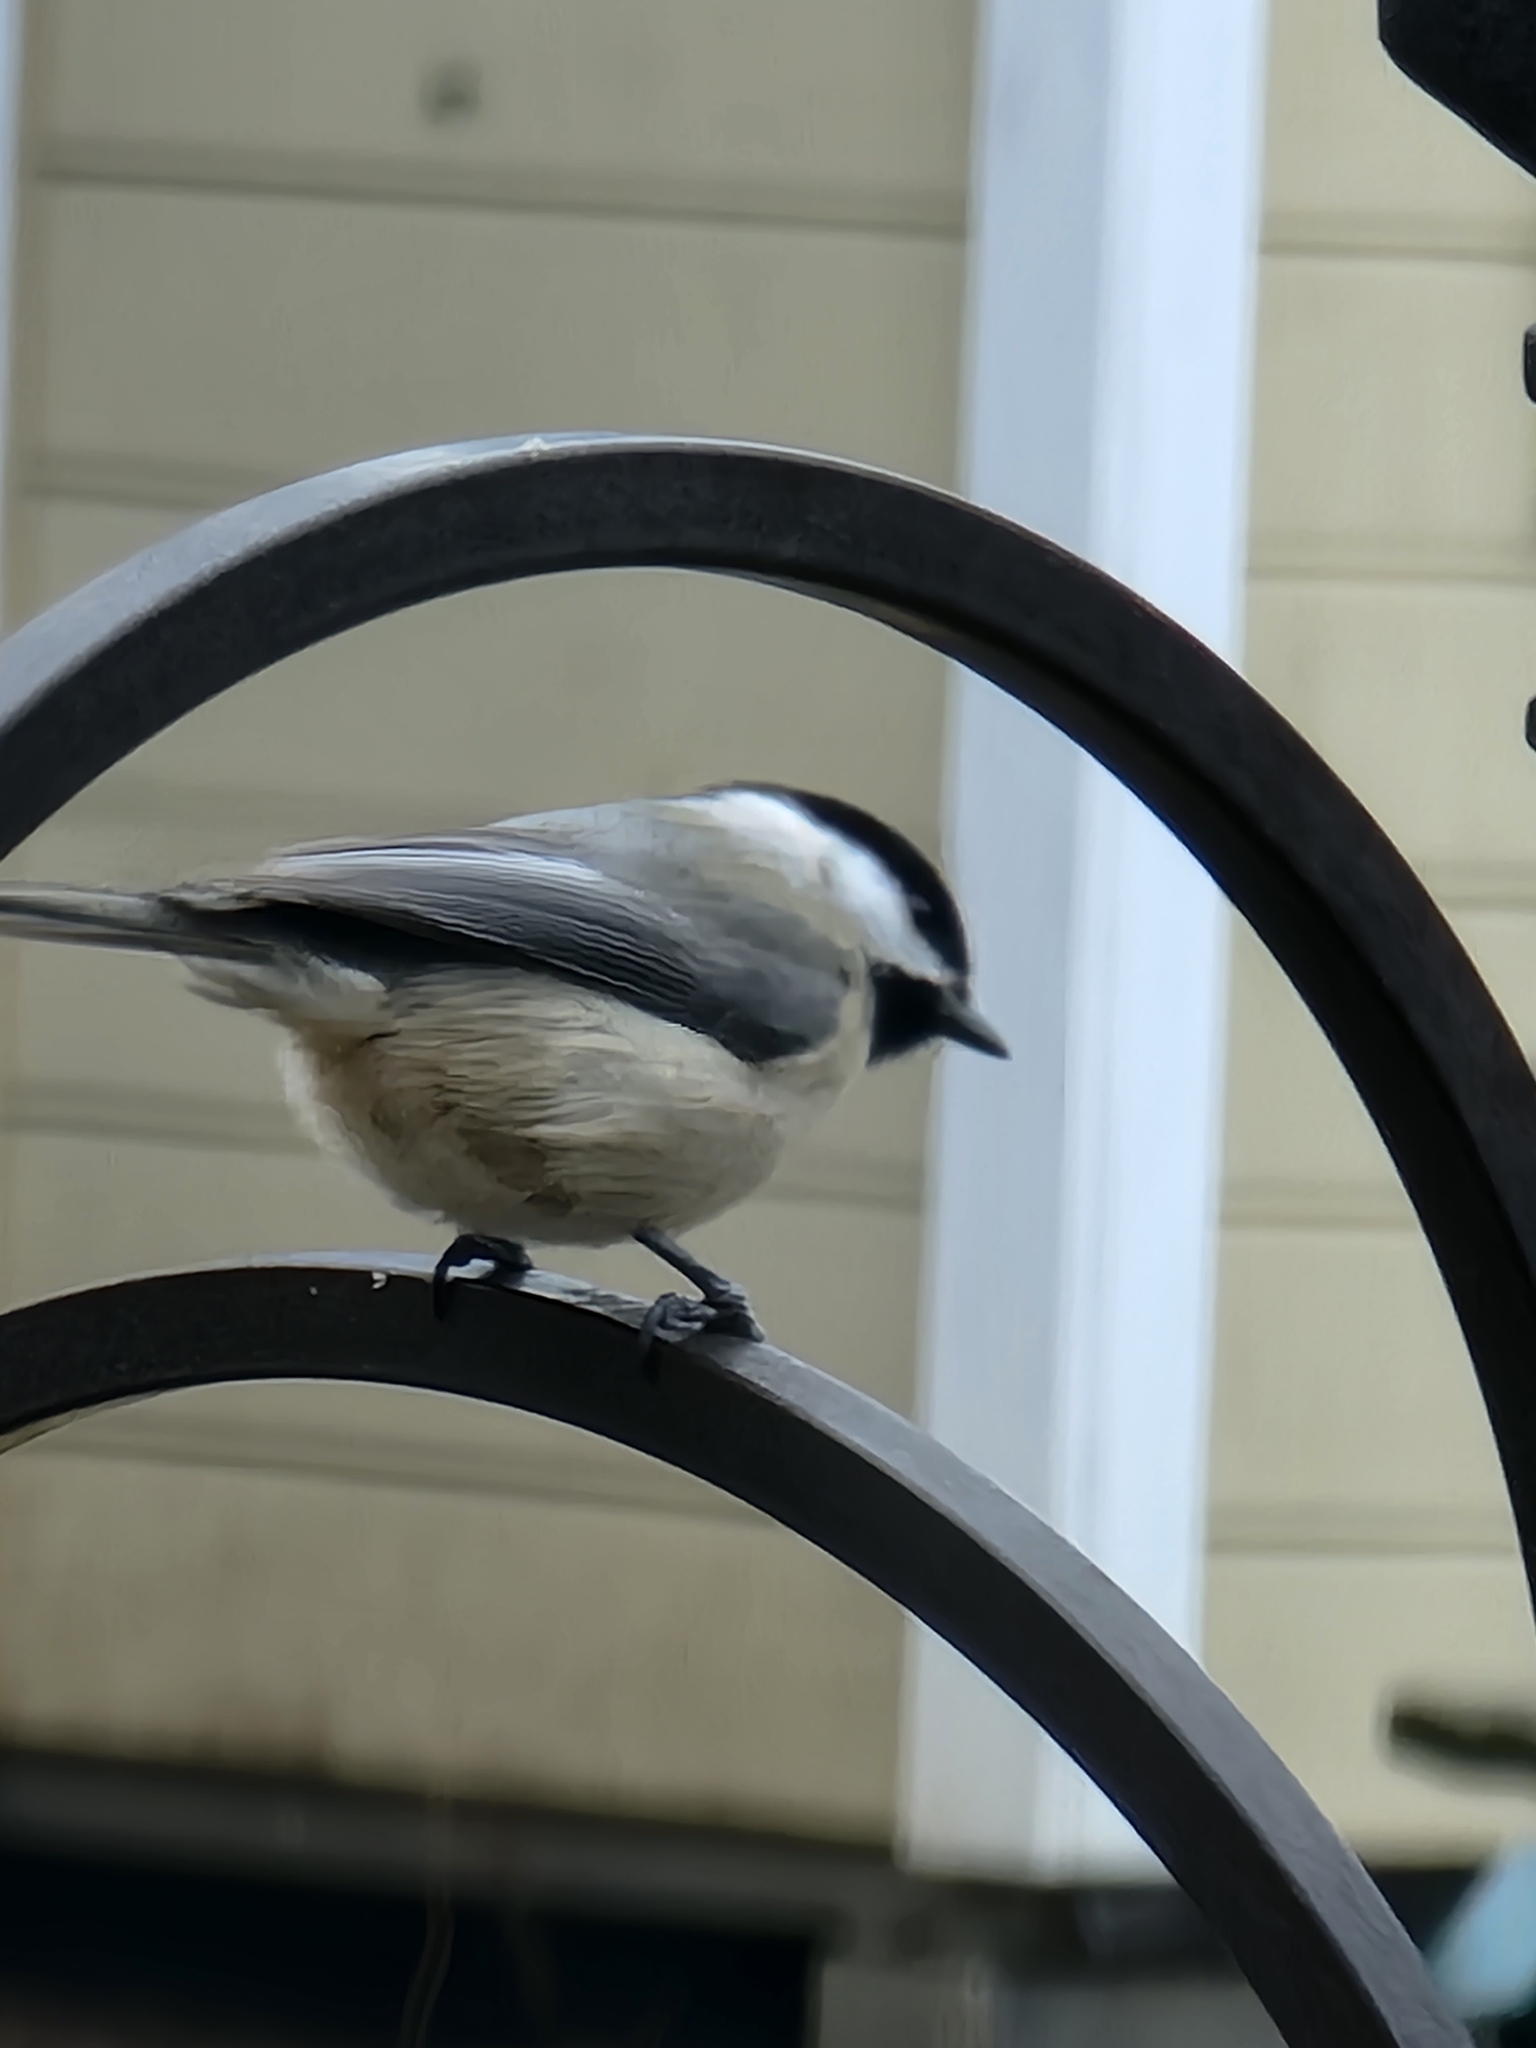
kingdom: Animalia
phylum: Chordata
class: Aves
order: Passeriformes
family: Paridae
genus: Poecile
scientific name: Poecile carolinensis
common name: Carolina chickadee
